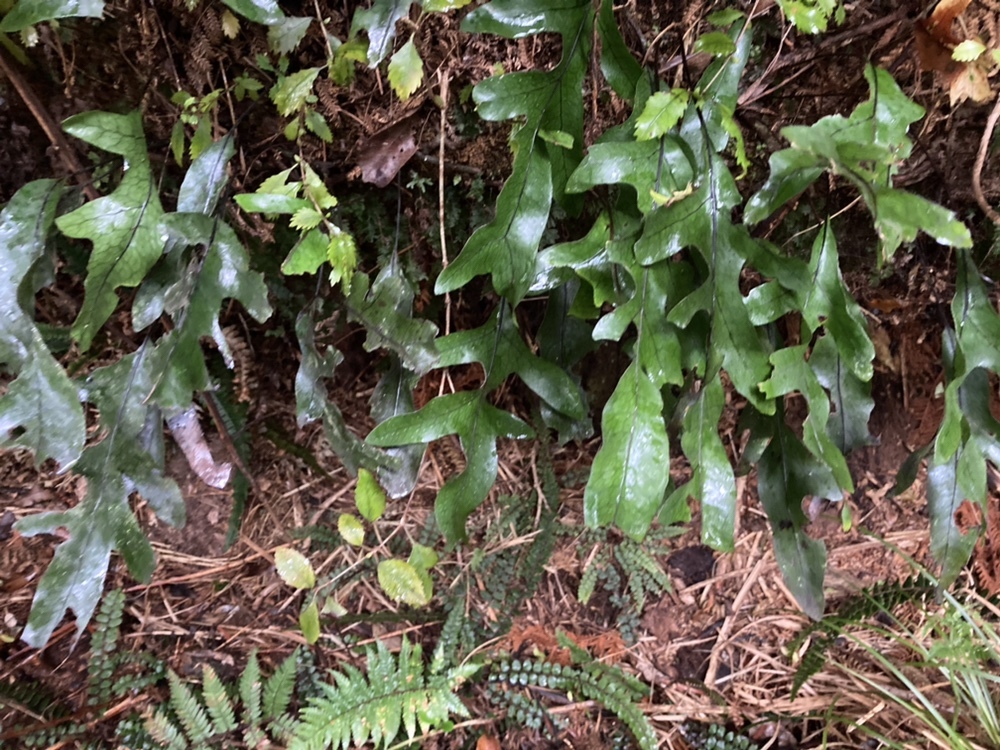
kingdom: Plantae
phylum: Tracheophyta
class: Polypodiopsida
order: Polypodiales
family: Polypodiaceae
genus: Lecanopteris
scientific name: Lecanopteris pustulata
